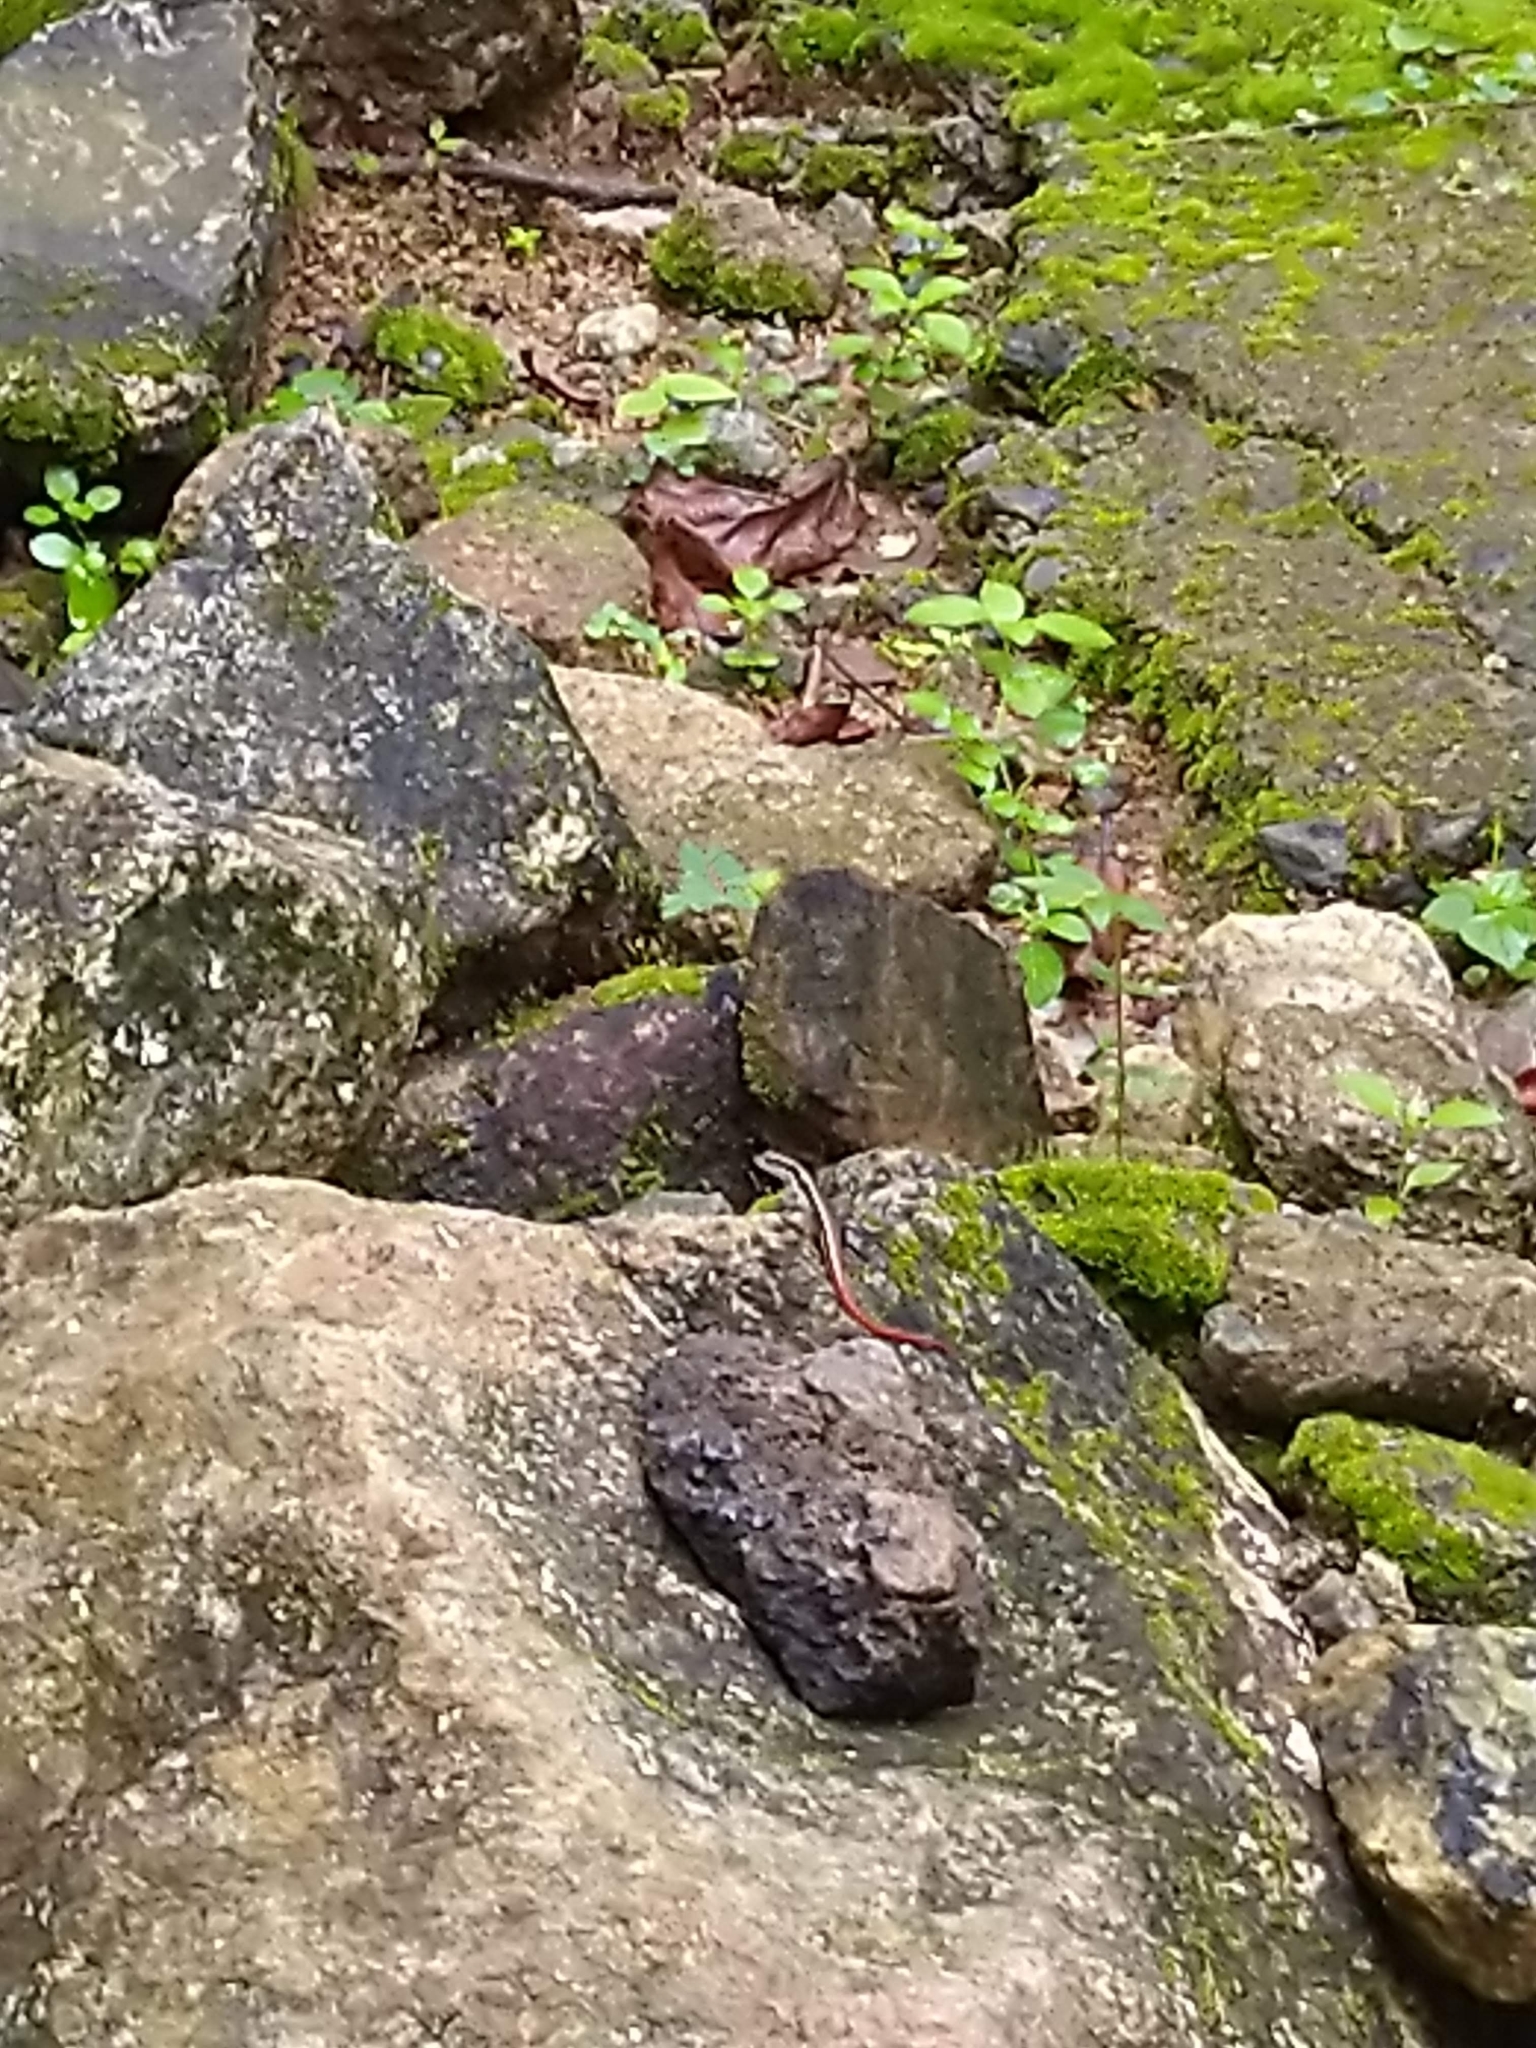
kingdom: Animalia
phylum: Chordata
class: Squamata
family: Scincidae
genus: Sphenomorphus
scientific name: Sphenomorphus dussumieri
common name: Dussumier's forest skink
